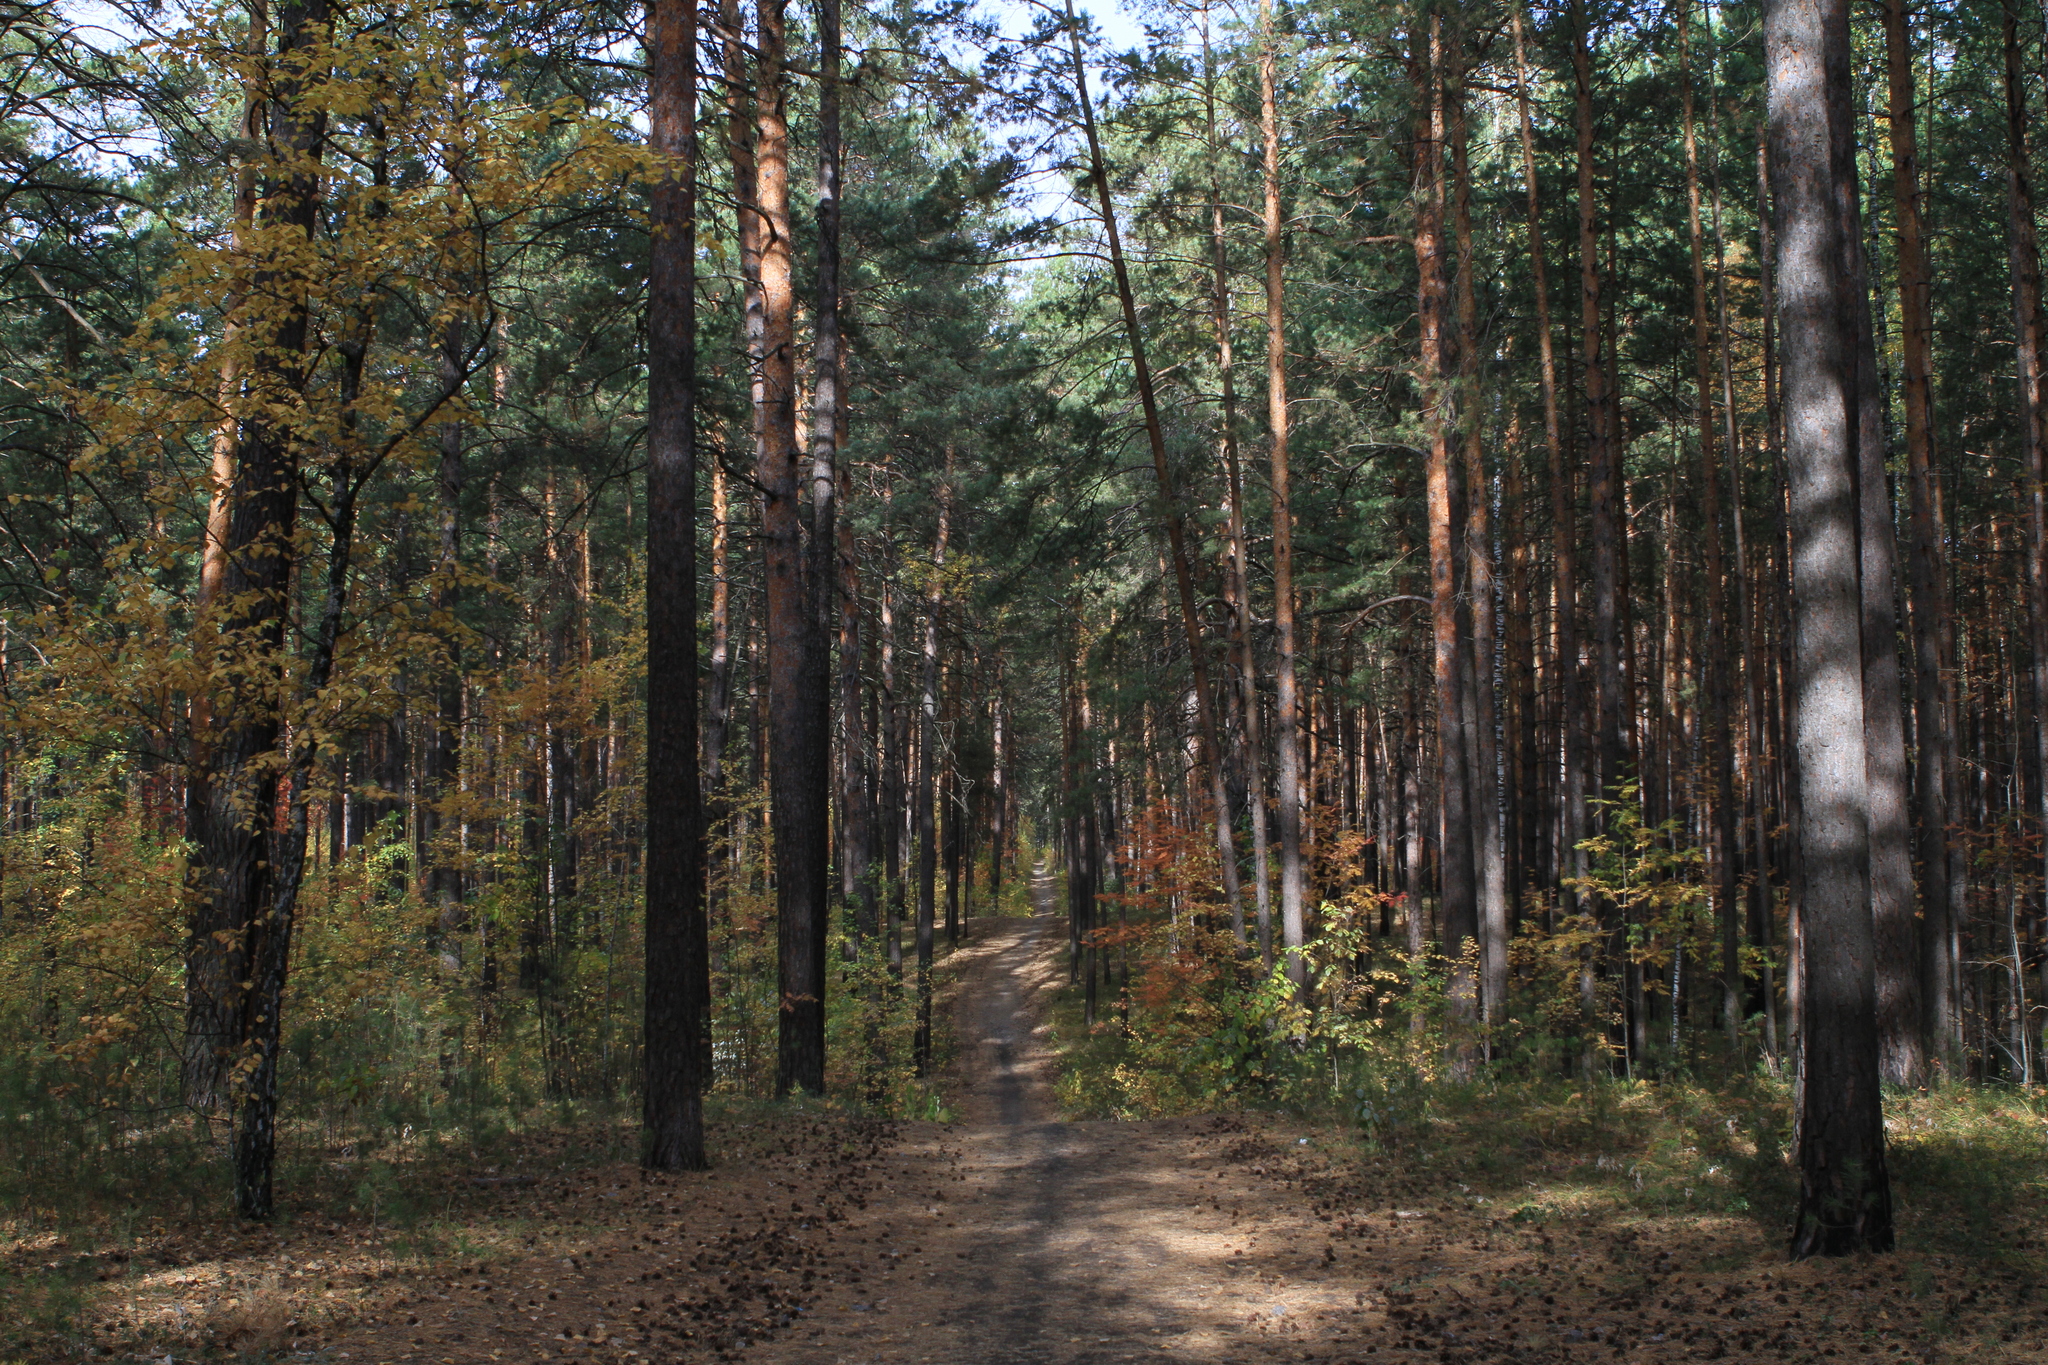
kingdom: Plantae
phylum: Tracheophyta
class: Pinopsida
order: Pinales
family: Pinaceae
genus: Pinus
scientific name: Pinus sylvestris
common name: Scots pine
